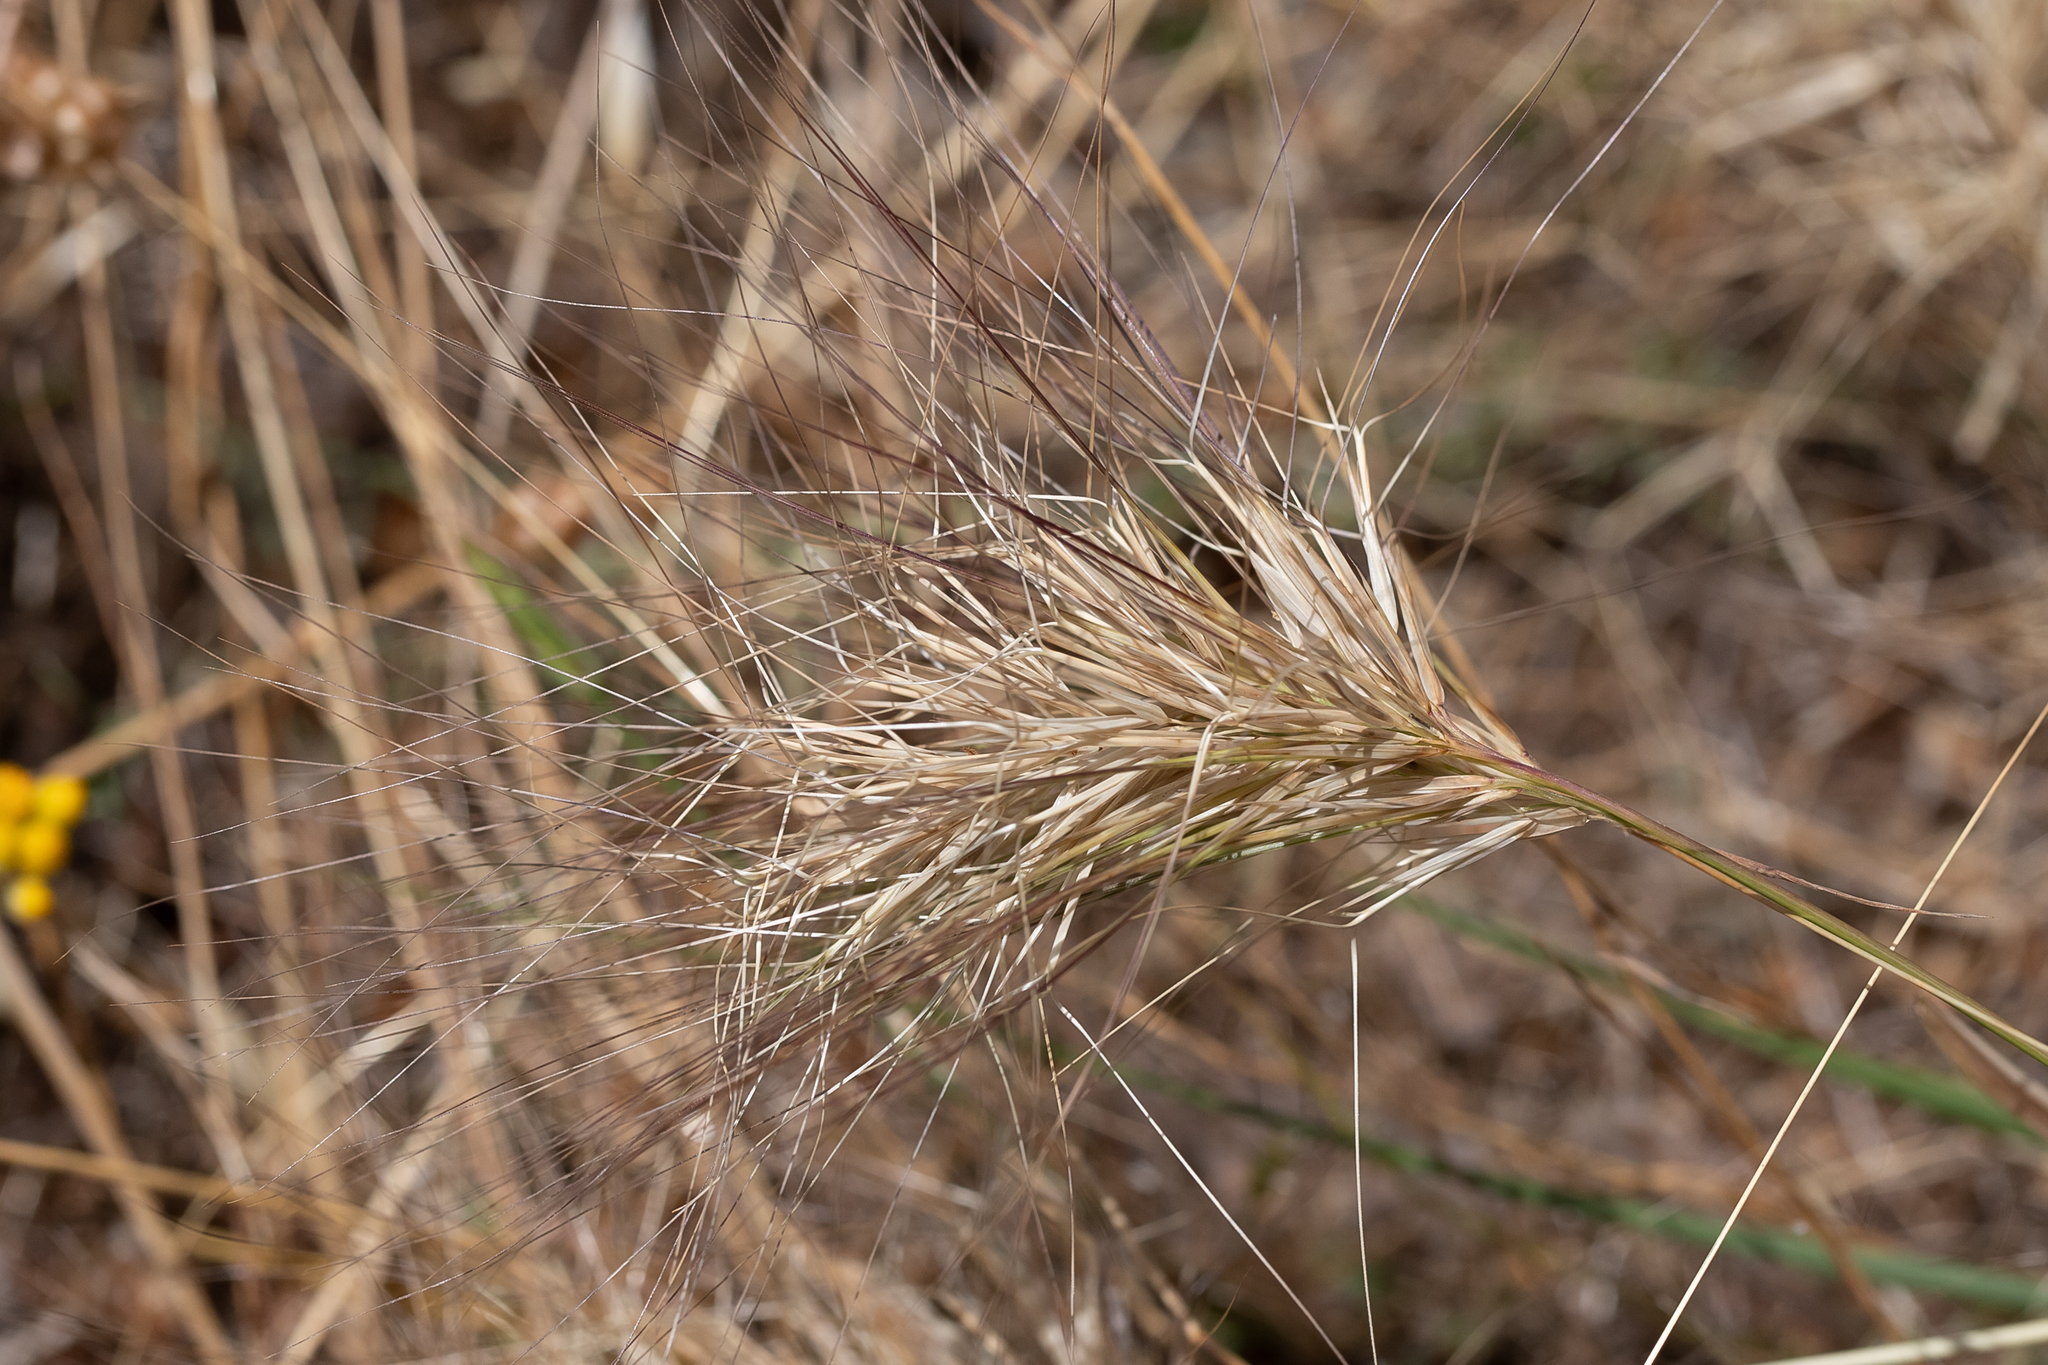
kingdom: Plantae
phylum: Tracheophyta
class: Liliopsida
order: Poales
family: Poaceae
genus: Aristida
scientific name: Aristida behriana
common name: Long-awn wire grass
